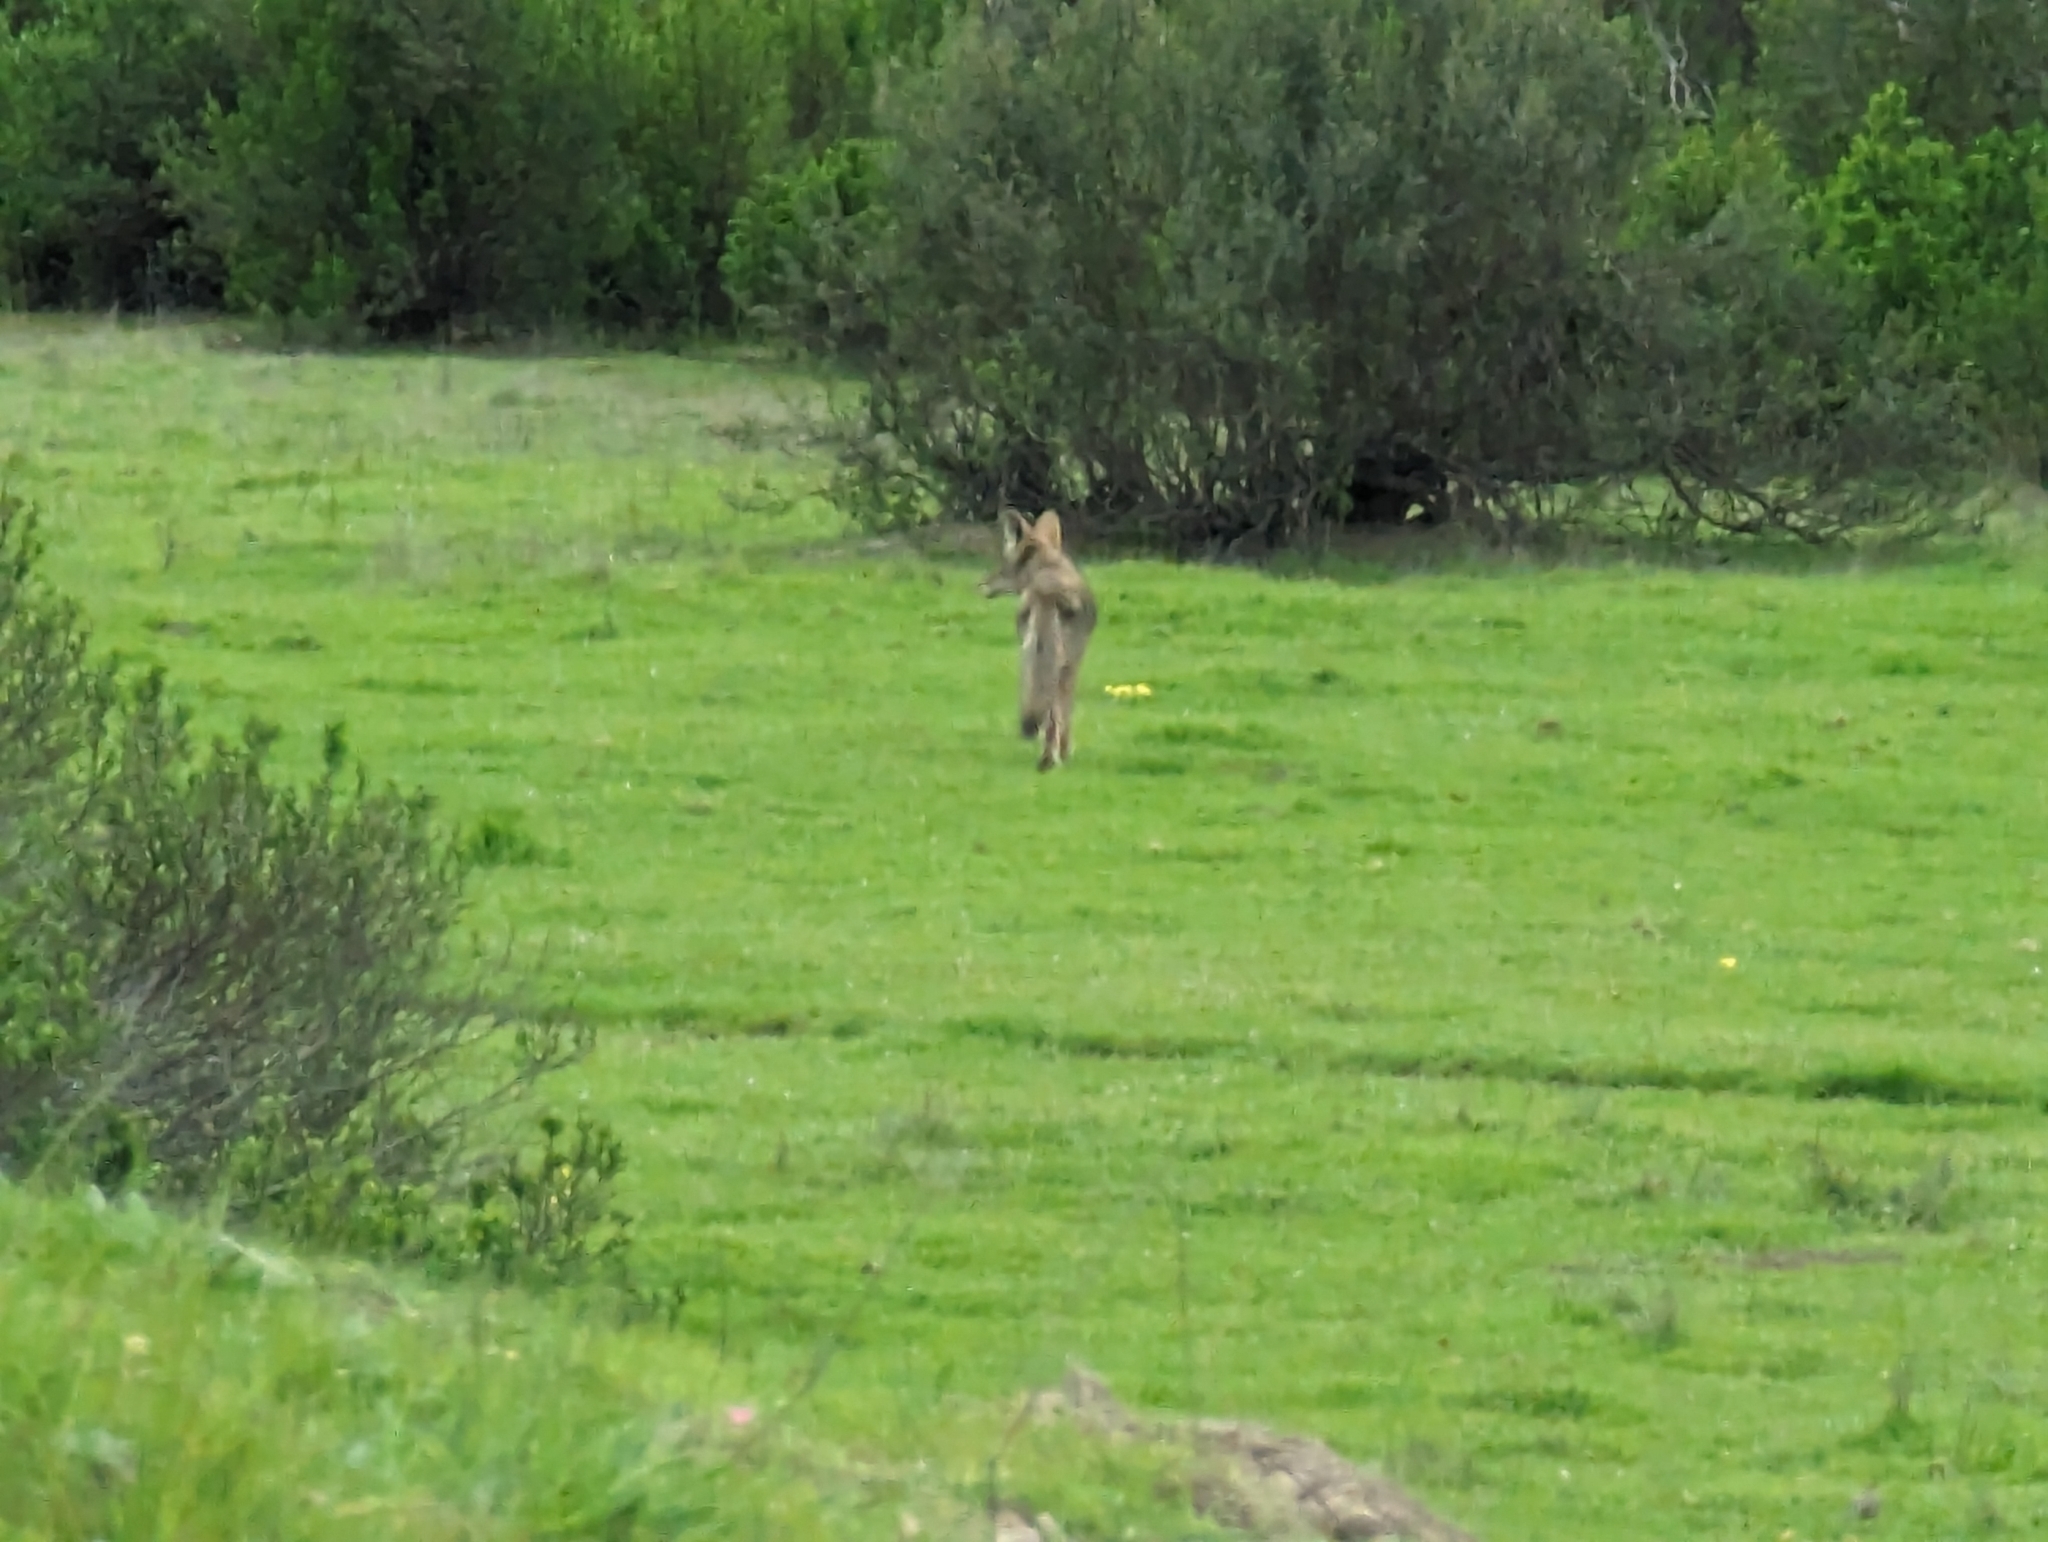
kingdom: Animalia
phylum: Chordata
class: Mammalia
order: Carnivora
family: Canidae
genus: Canis
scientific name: Canis latrans
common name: Coyote
